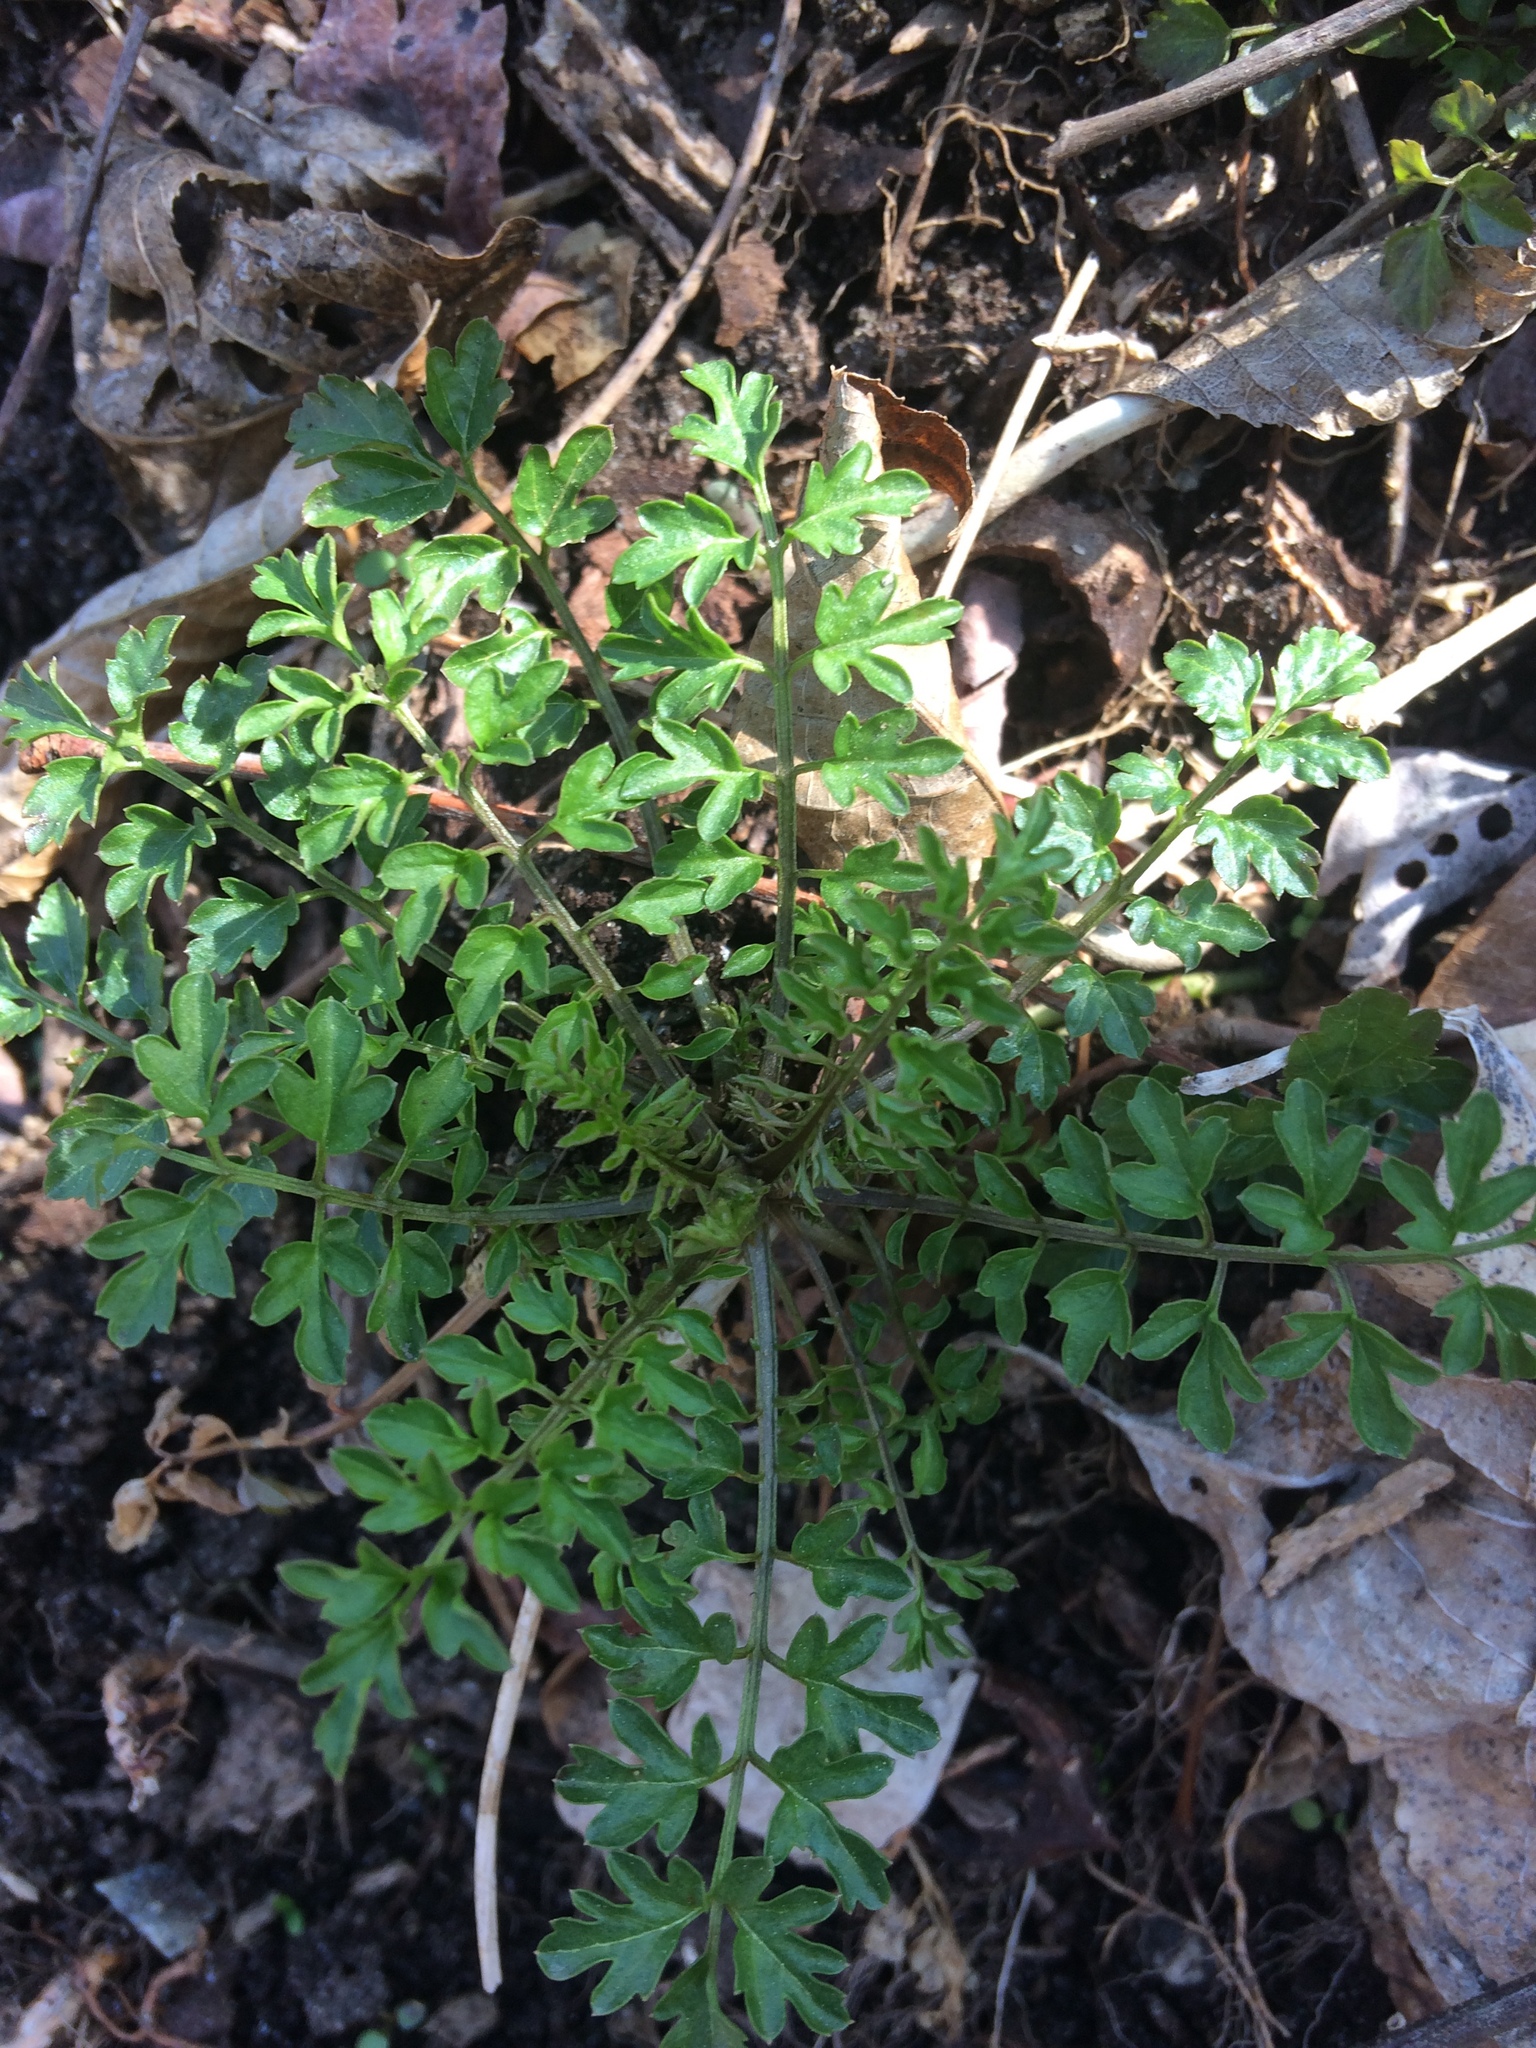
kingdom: Plantae
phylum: Tracheophyta
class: Magnoliopsida
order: Brassicales
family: Brassicaceae
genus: Cardamine
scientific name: Cardamine impatiens
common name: Narrow-leaved bitter-cress
